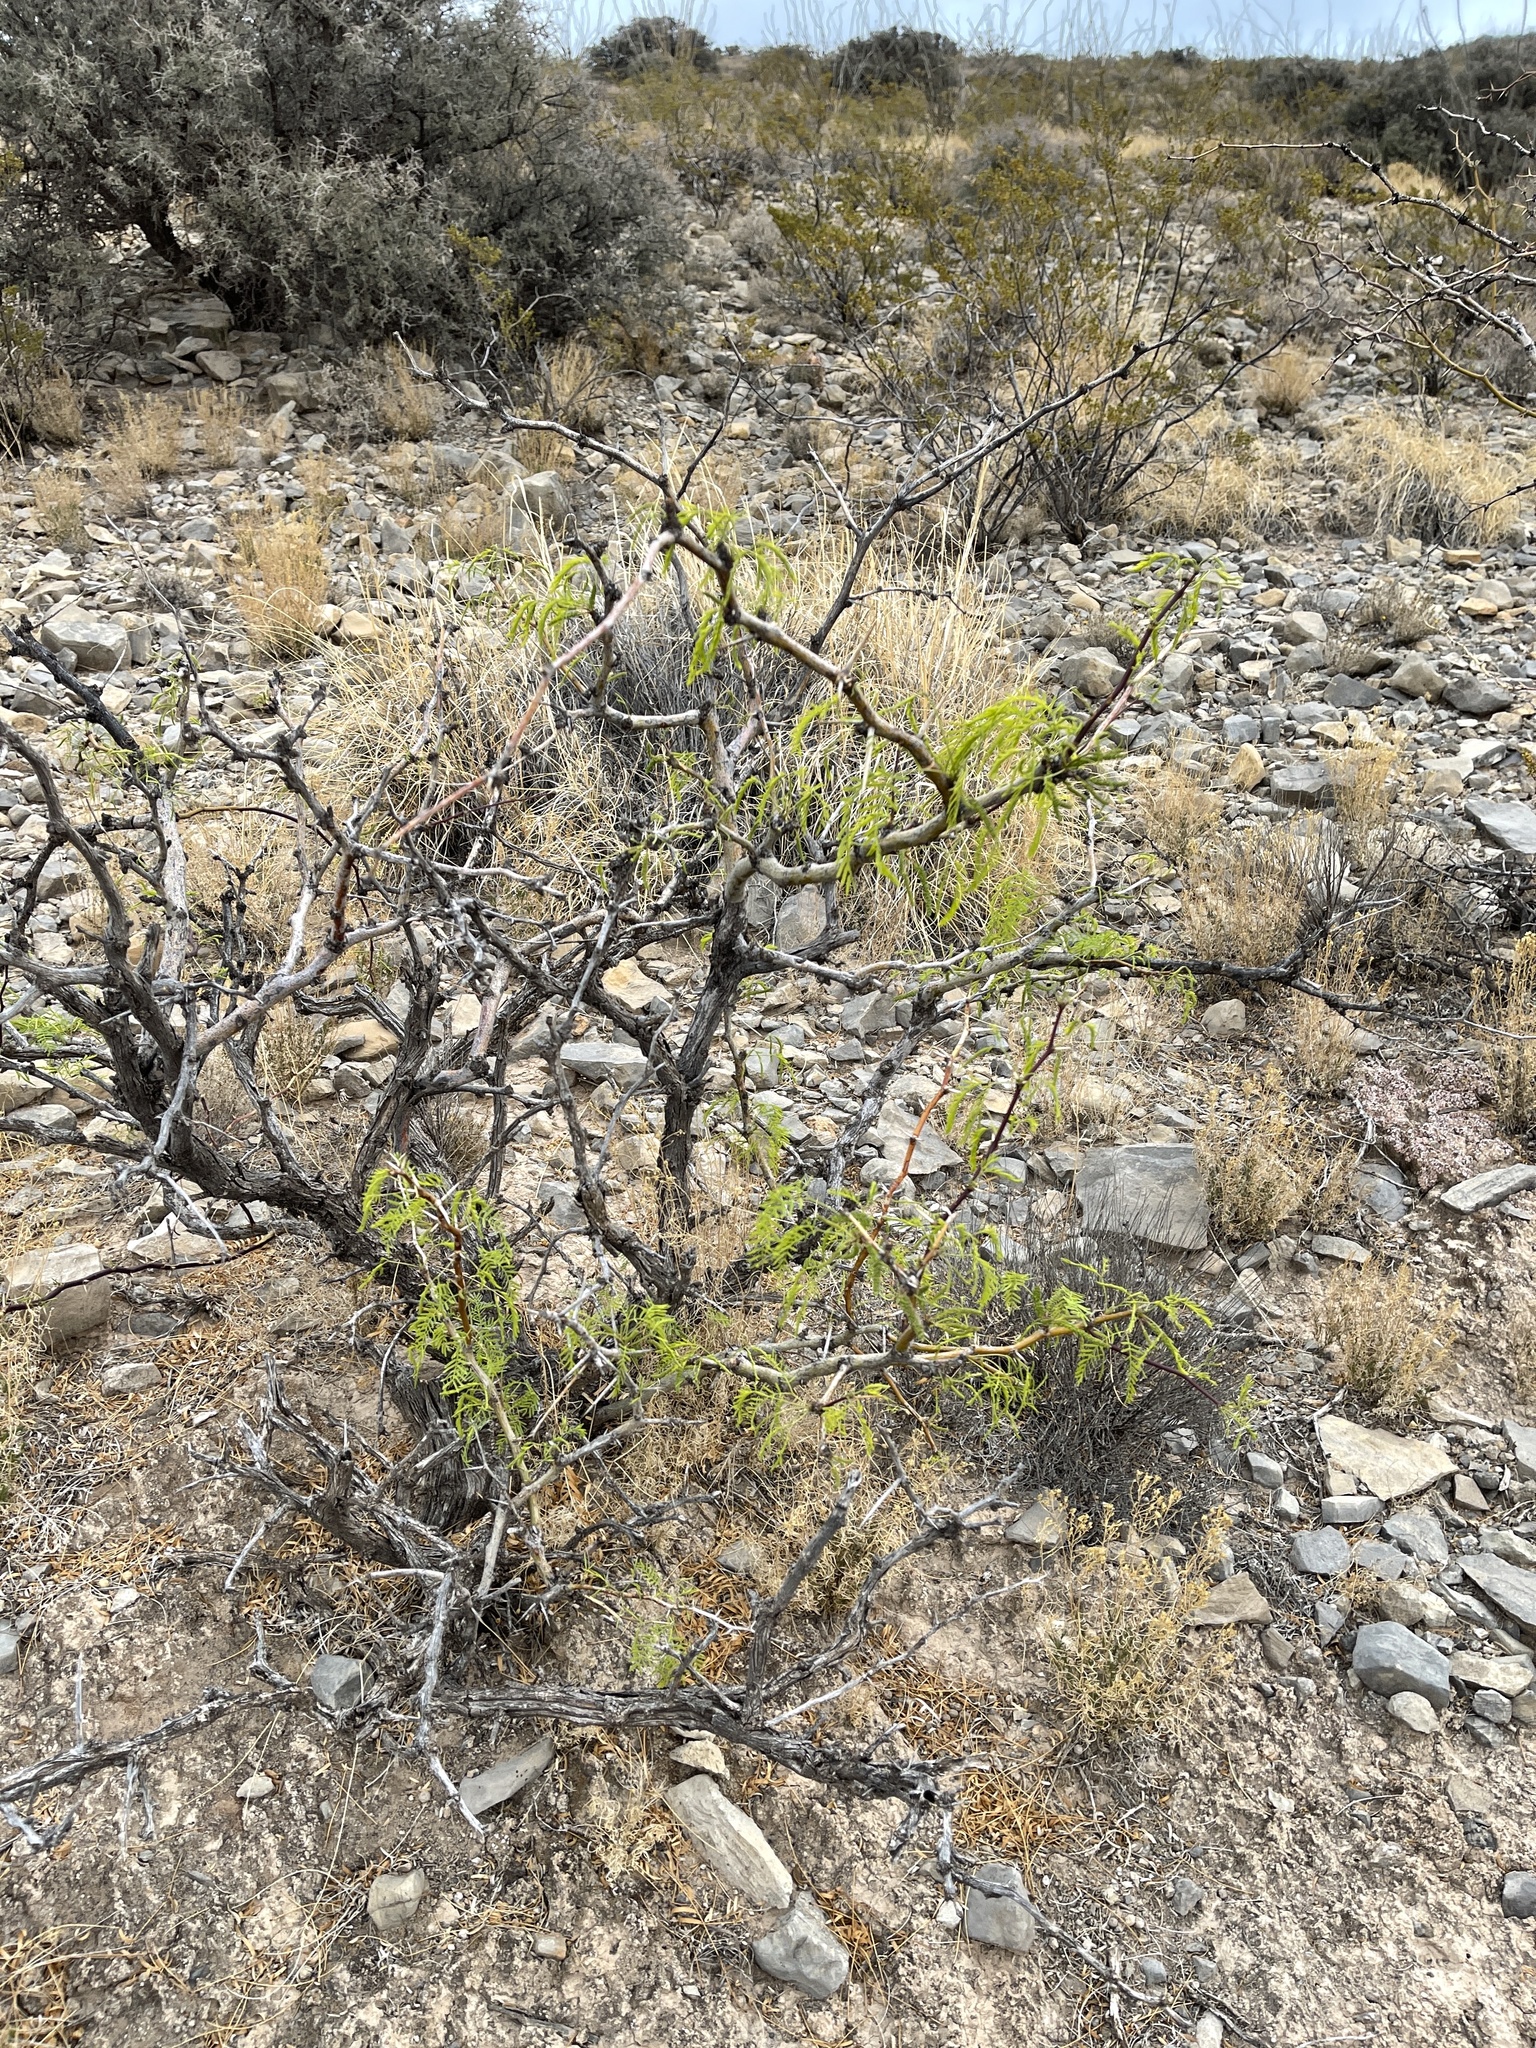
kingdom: Plantae
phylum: Tracheophyta
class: Magnoliopsida
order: Fabales
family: Fabaceae
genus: Prosopis
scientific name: Prosopis glandulosa
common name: Honey mesquite
